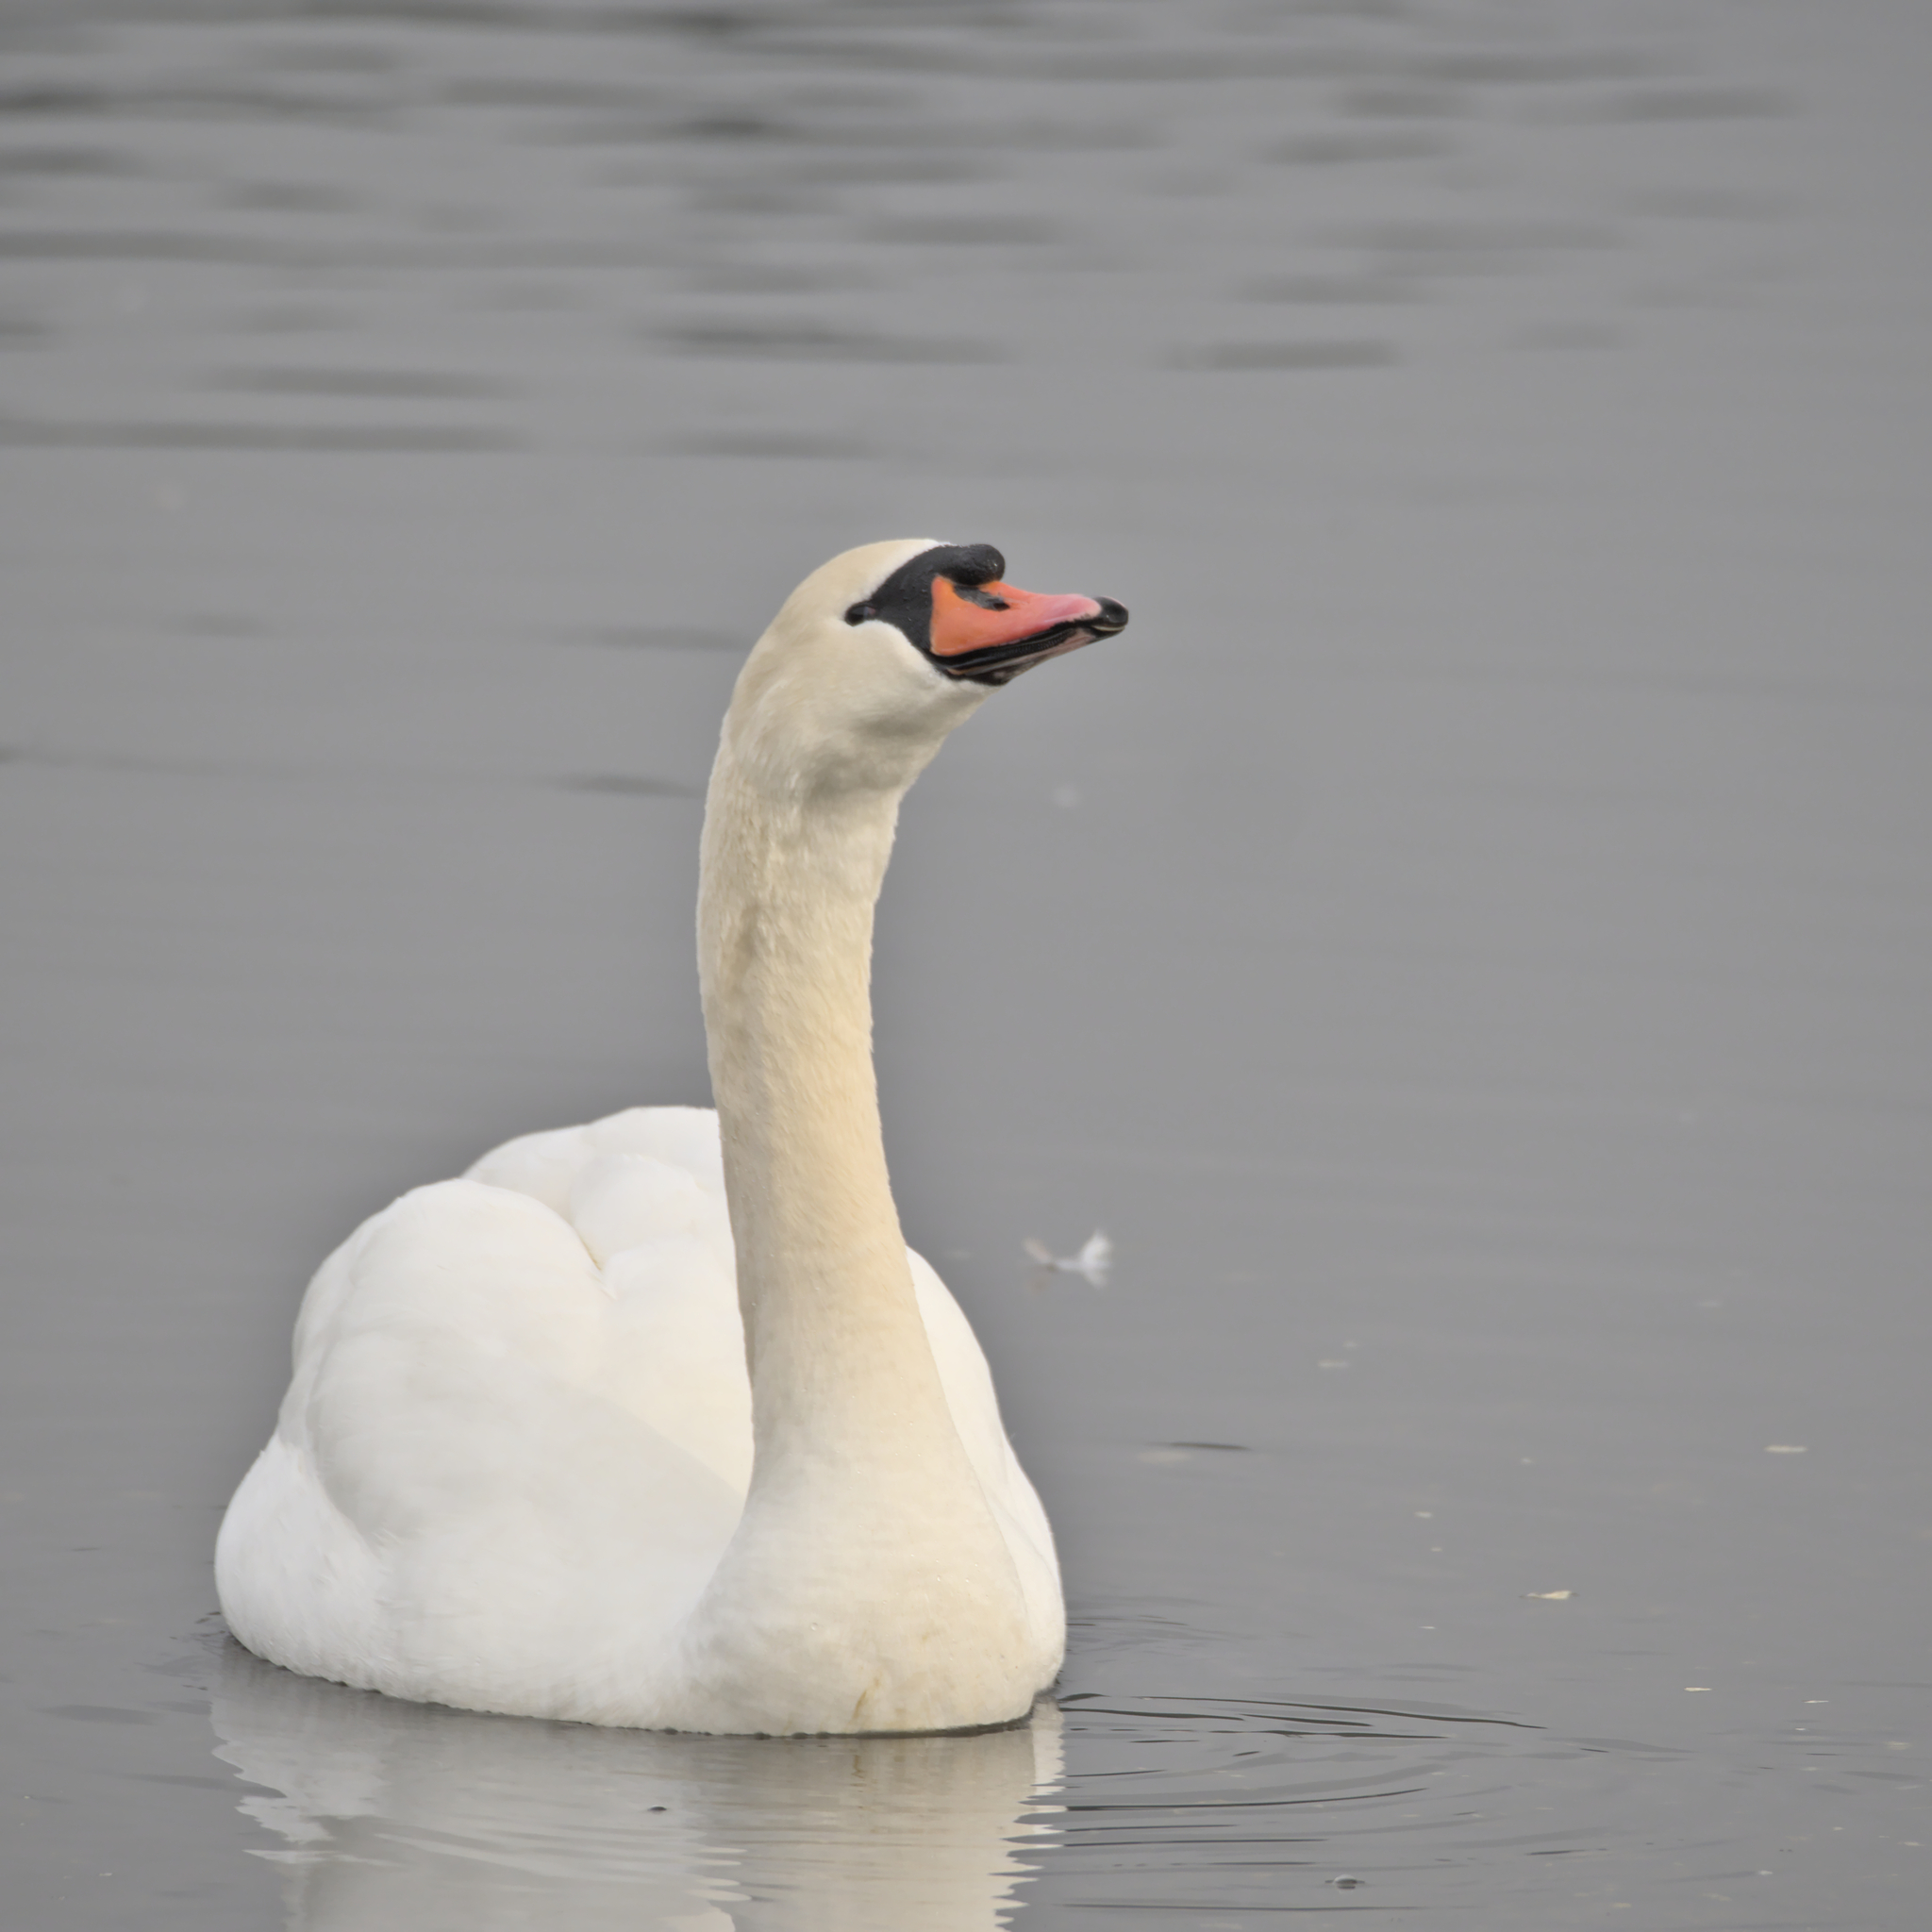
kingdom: Animalia
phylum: Chordata
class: Aves
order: Anseriformes
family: Anatidae
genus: Cygnus
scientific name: Cygnus olor
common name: Mute swan
